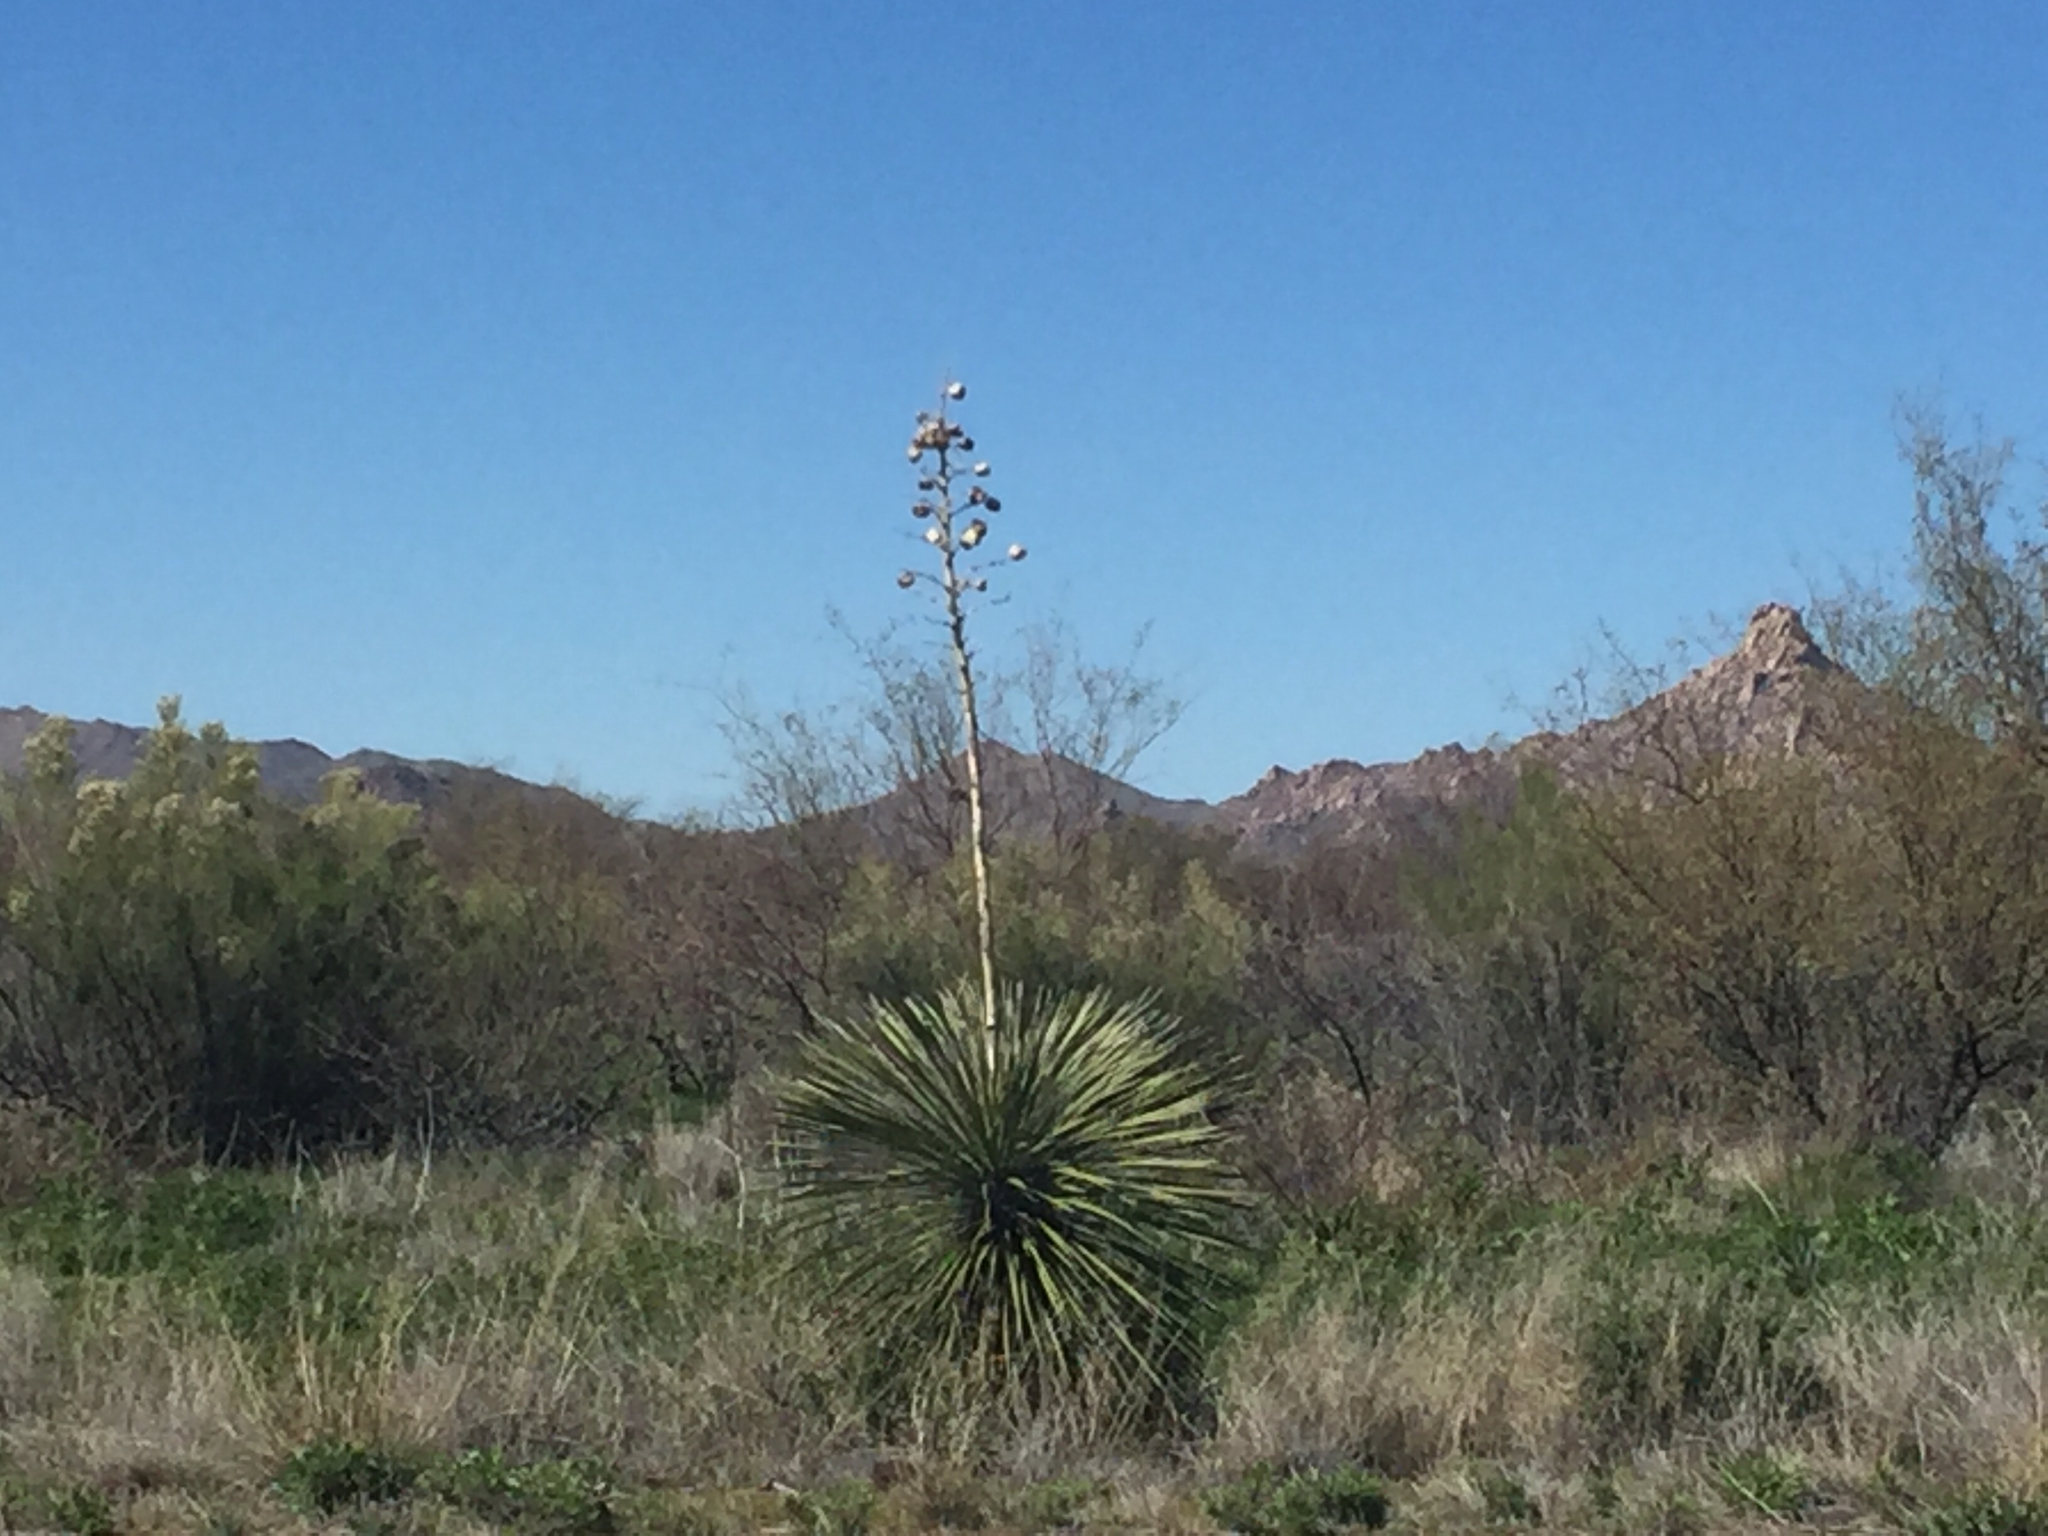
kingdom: Plantae
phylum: Tracheophyta
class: Liliopsida
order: Asparagales
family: Asparagaceae
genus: Yucca
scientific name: Yucca elata
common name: Palmella
